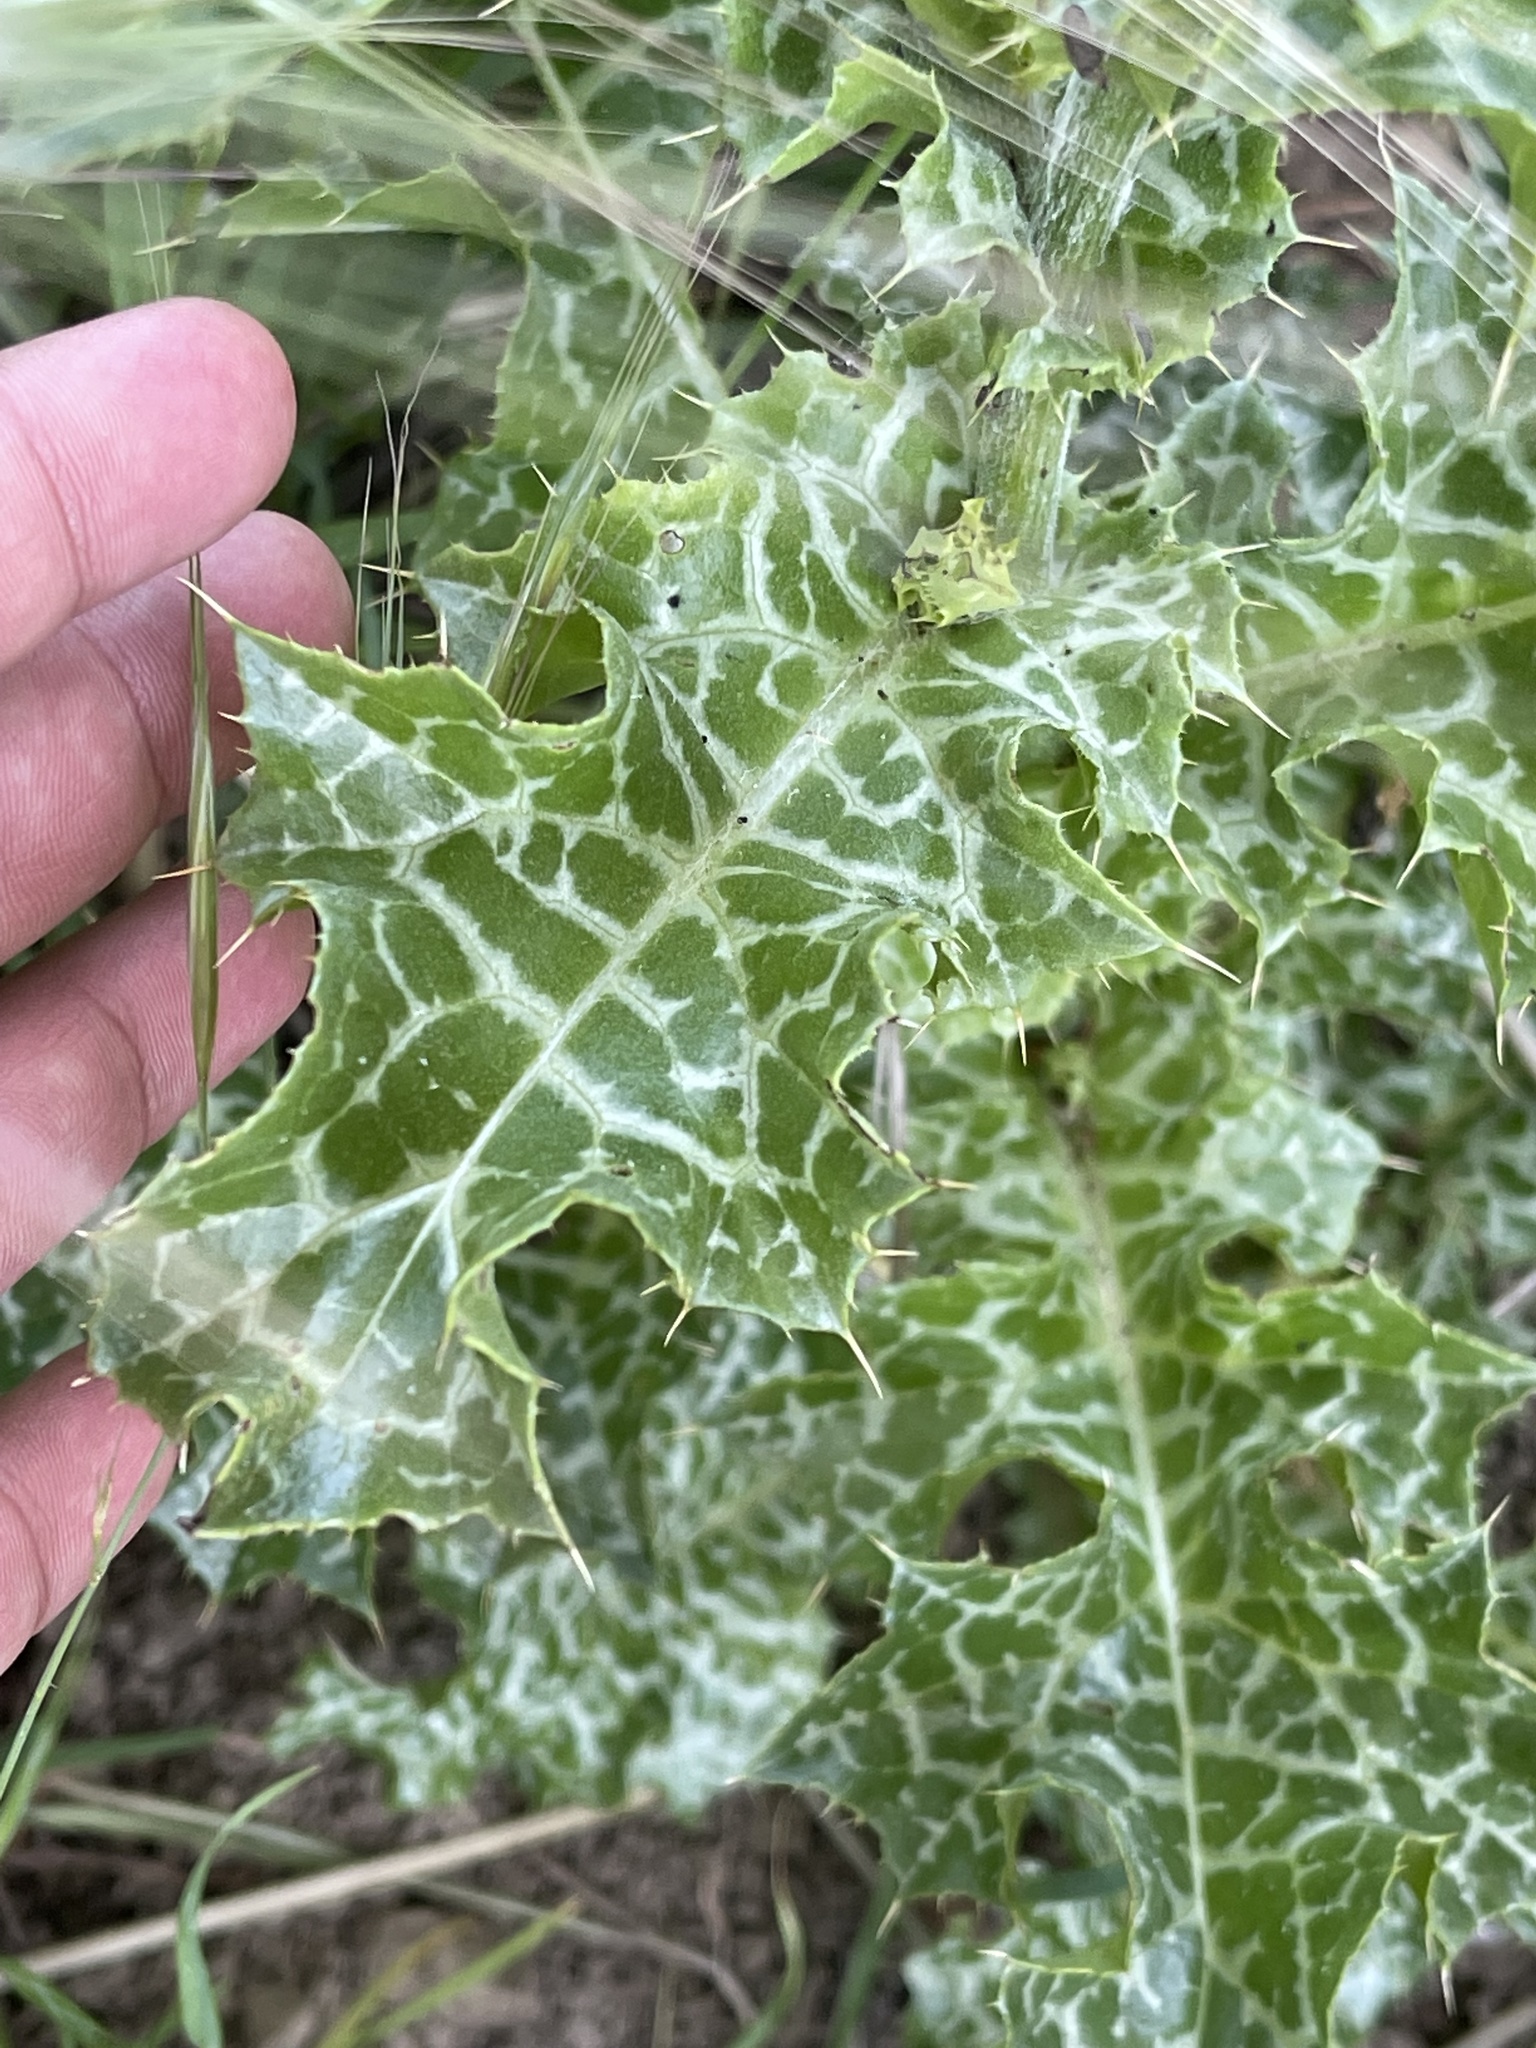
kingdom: Plantae
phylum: Tracheophyta
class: Magnoliopsida
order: Asterales
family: Asteraceae
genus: Silybum
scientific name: Silybum marianum
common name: Milk thistle
